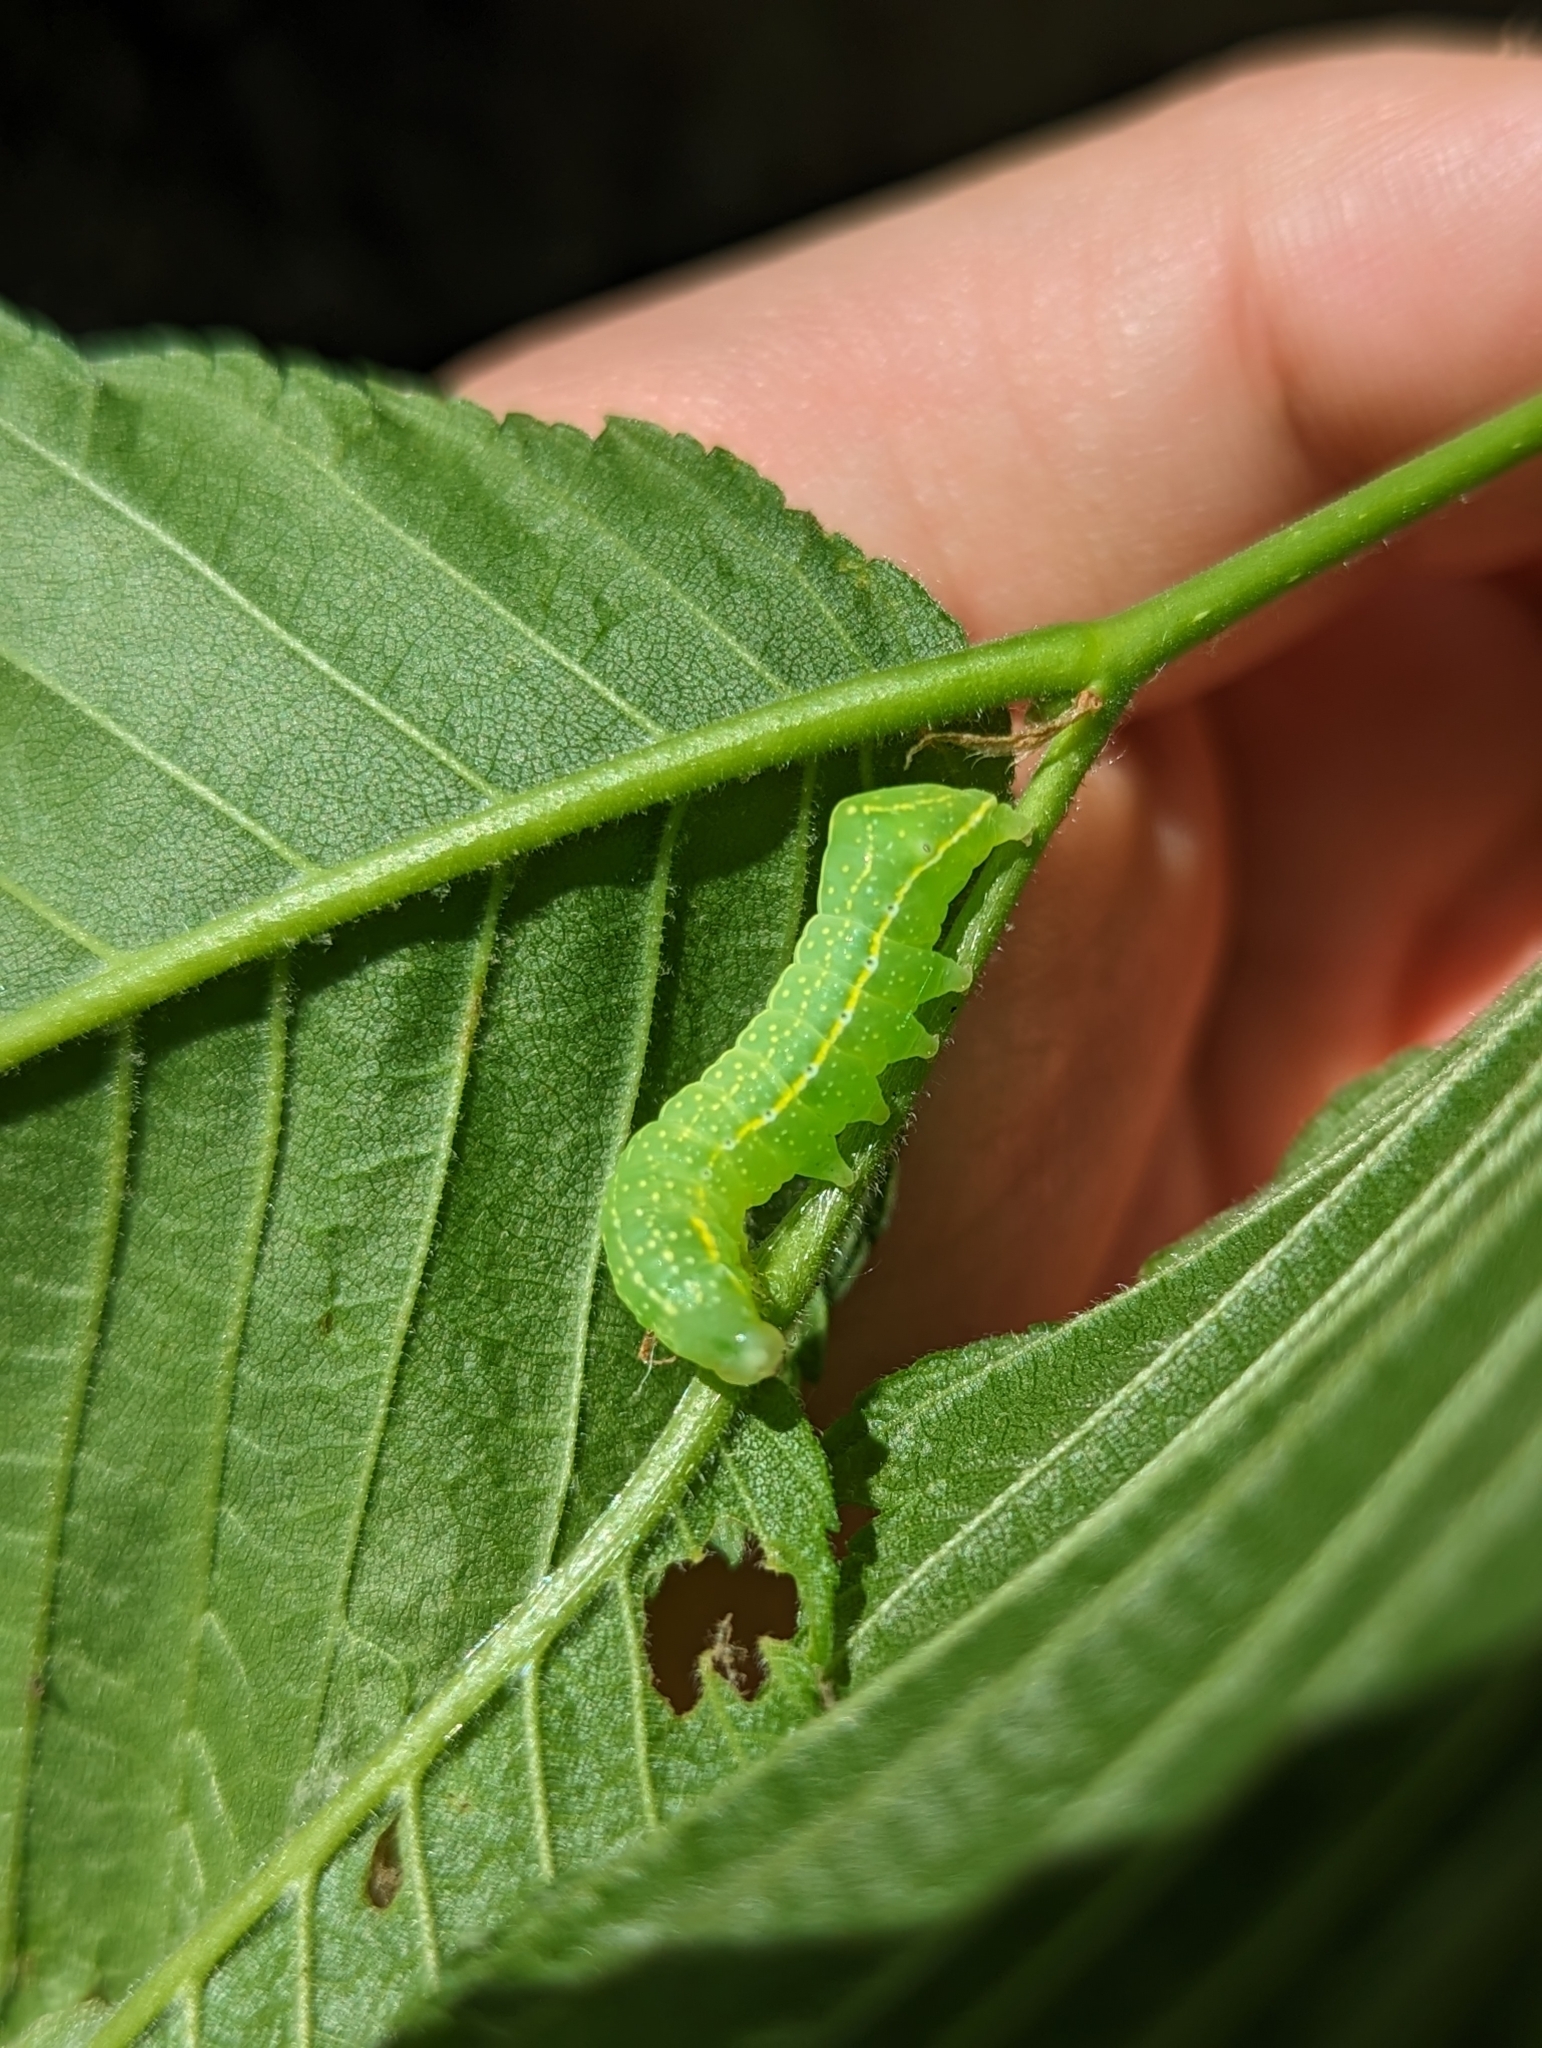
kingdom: Animalia
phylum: Arthropoda
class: Insecta
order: Lepidoptera
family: Noctuidae
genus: Amphipyra
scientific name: Amphipyra pyramidoides
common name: American copper underwing
